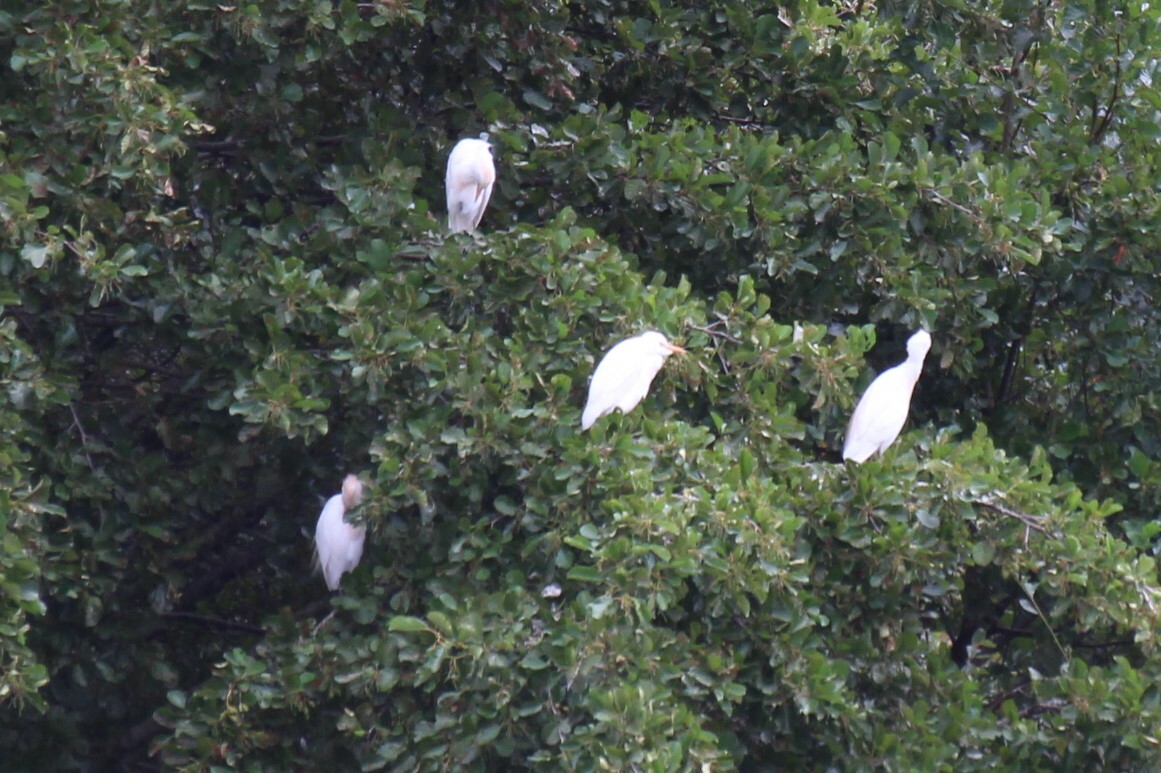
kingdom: Animalia
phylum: Chordata
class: Aves
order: Pelecaniformes
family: Ardeidae
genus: Bubulcus
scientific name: Bubulcus ibis
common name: Cattle egret
